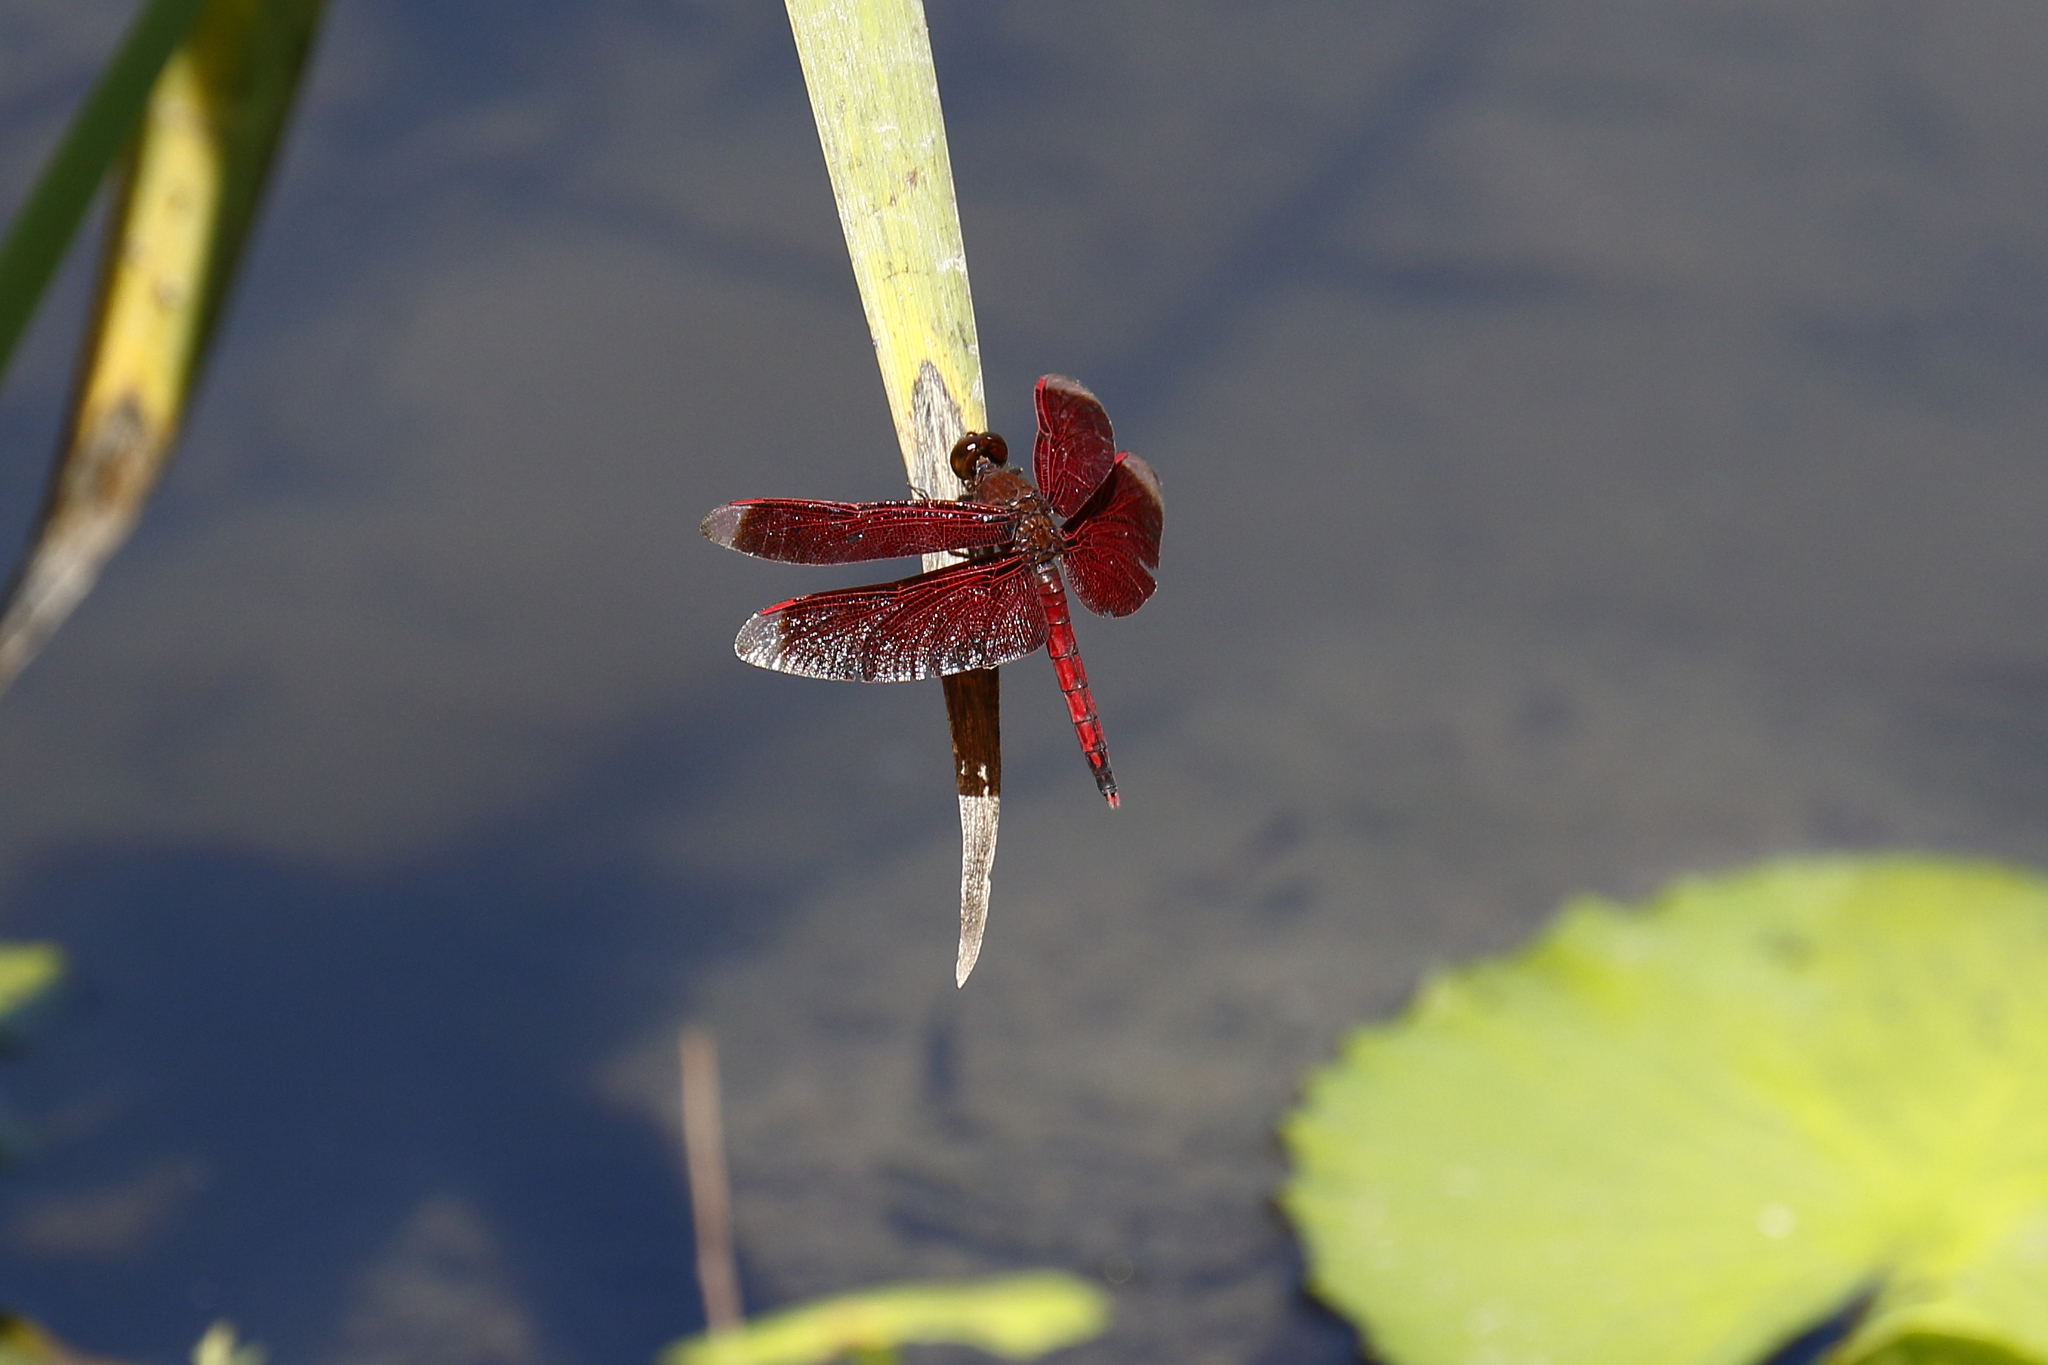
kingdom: Animalia
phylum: Arthropoda
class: Insecta
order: Odonata
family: Libellulidae
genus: Neurothemis
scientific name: Neurothemis taiwanensis
